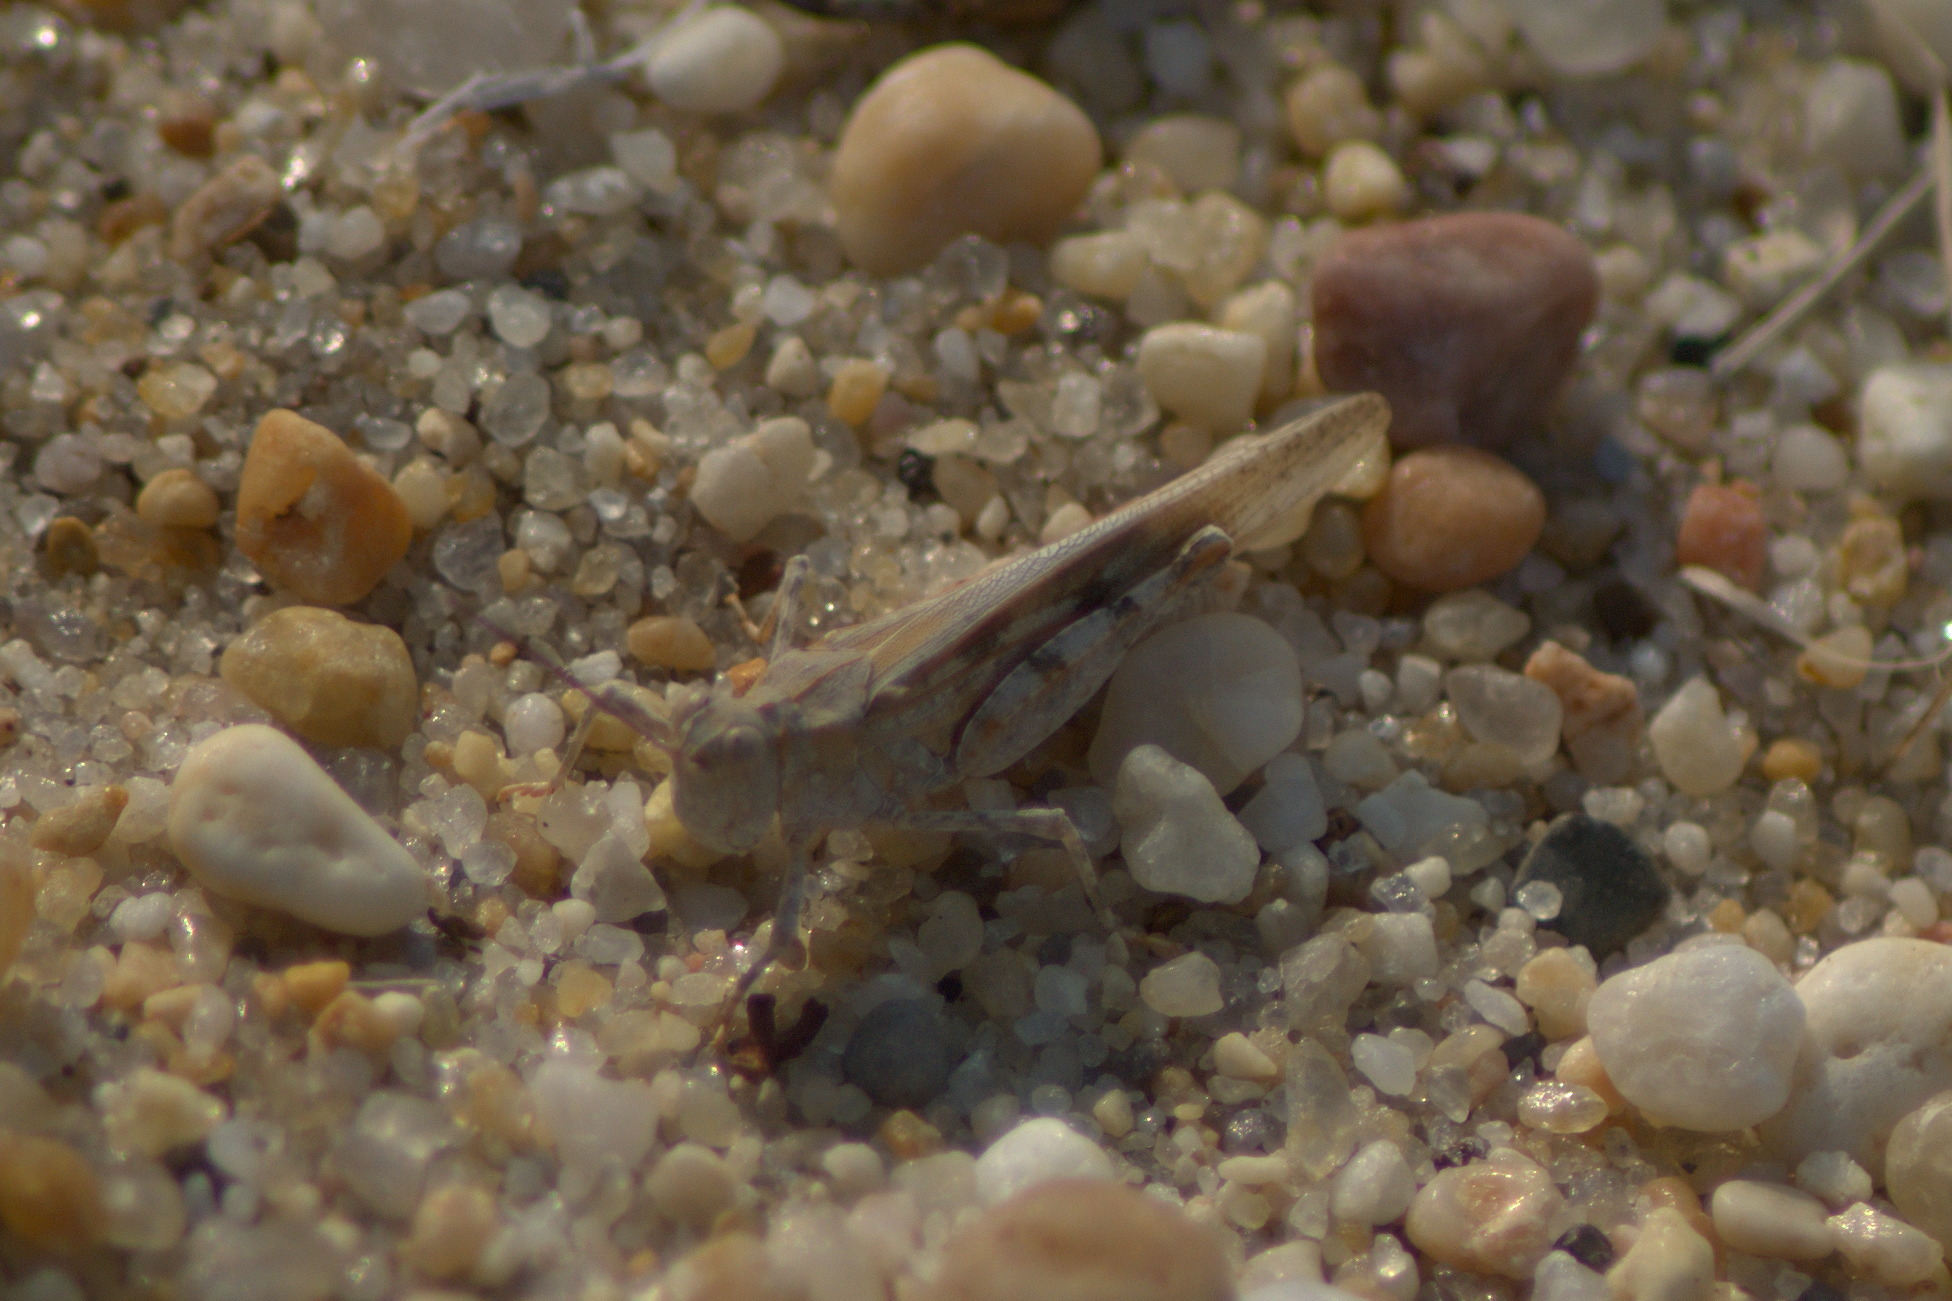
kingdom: Animalia
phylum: Arthropoda
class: Insecta
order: Orthoptera
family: Acrididae
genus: Trimerotropis
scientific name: Trimerotropis maritima
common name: Seaside locust
